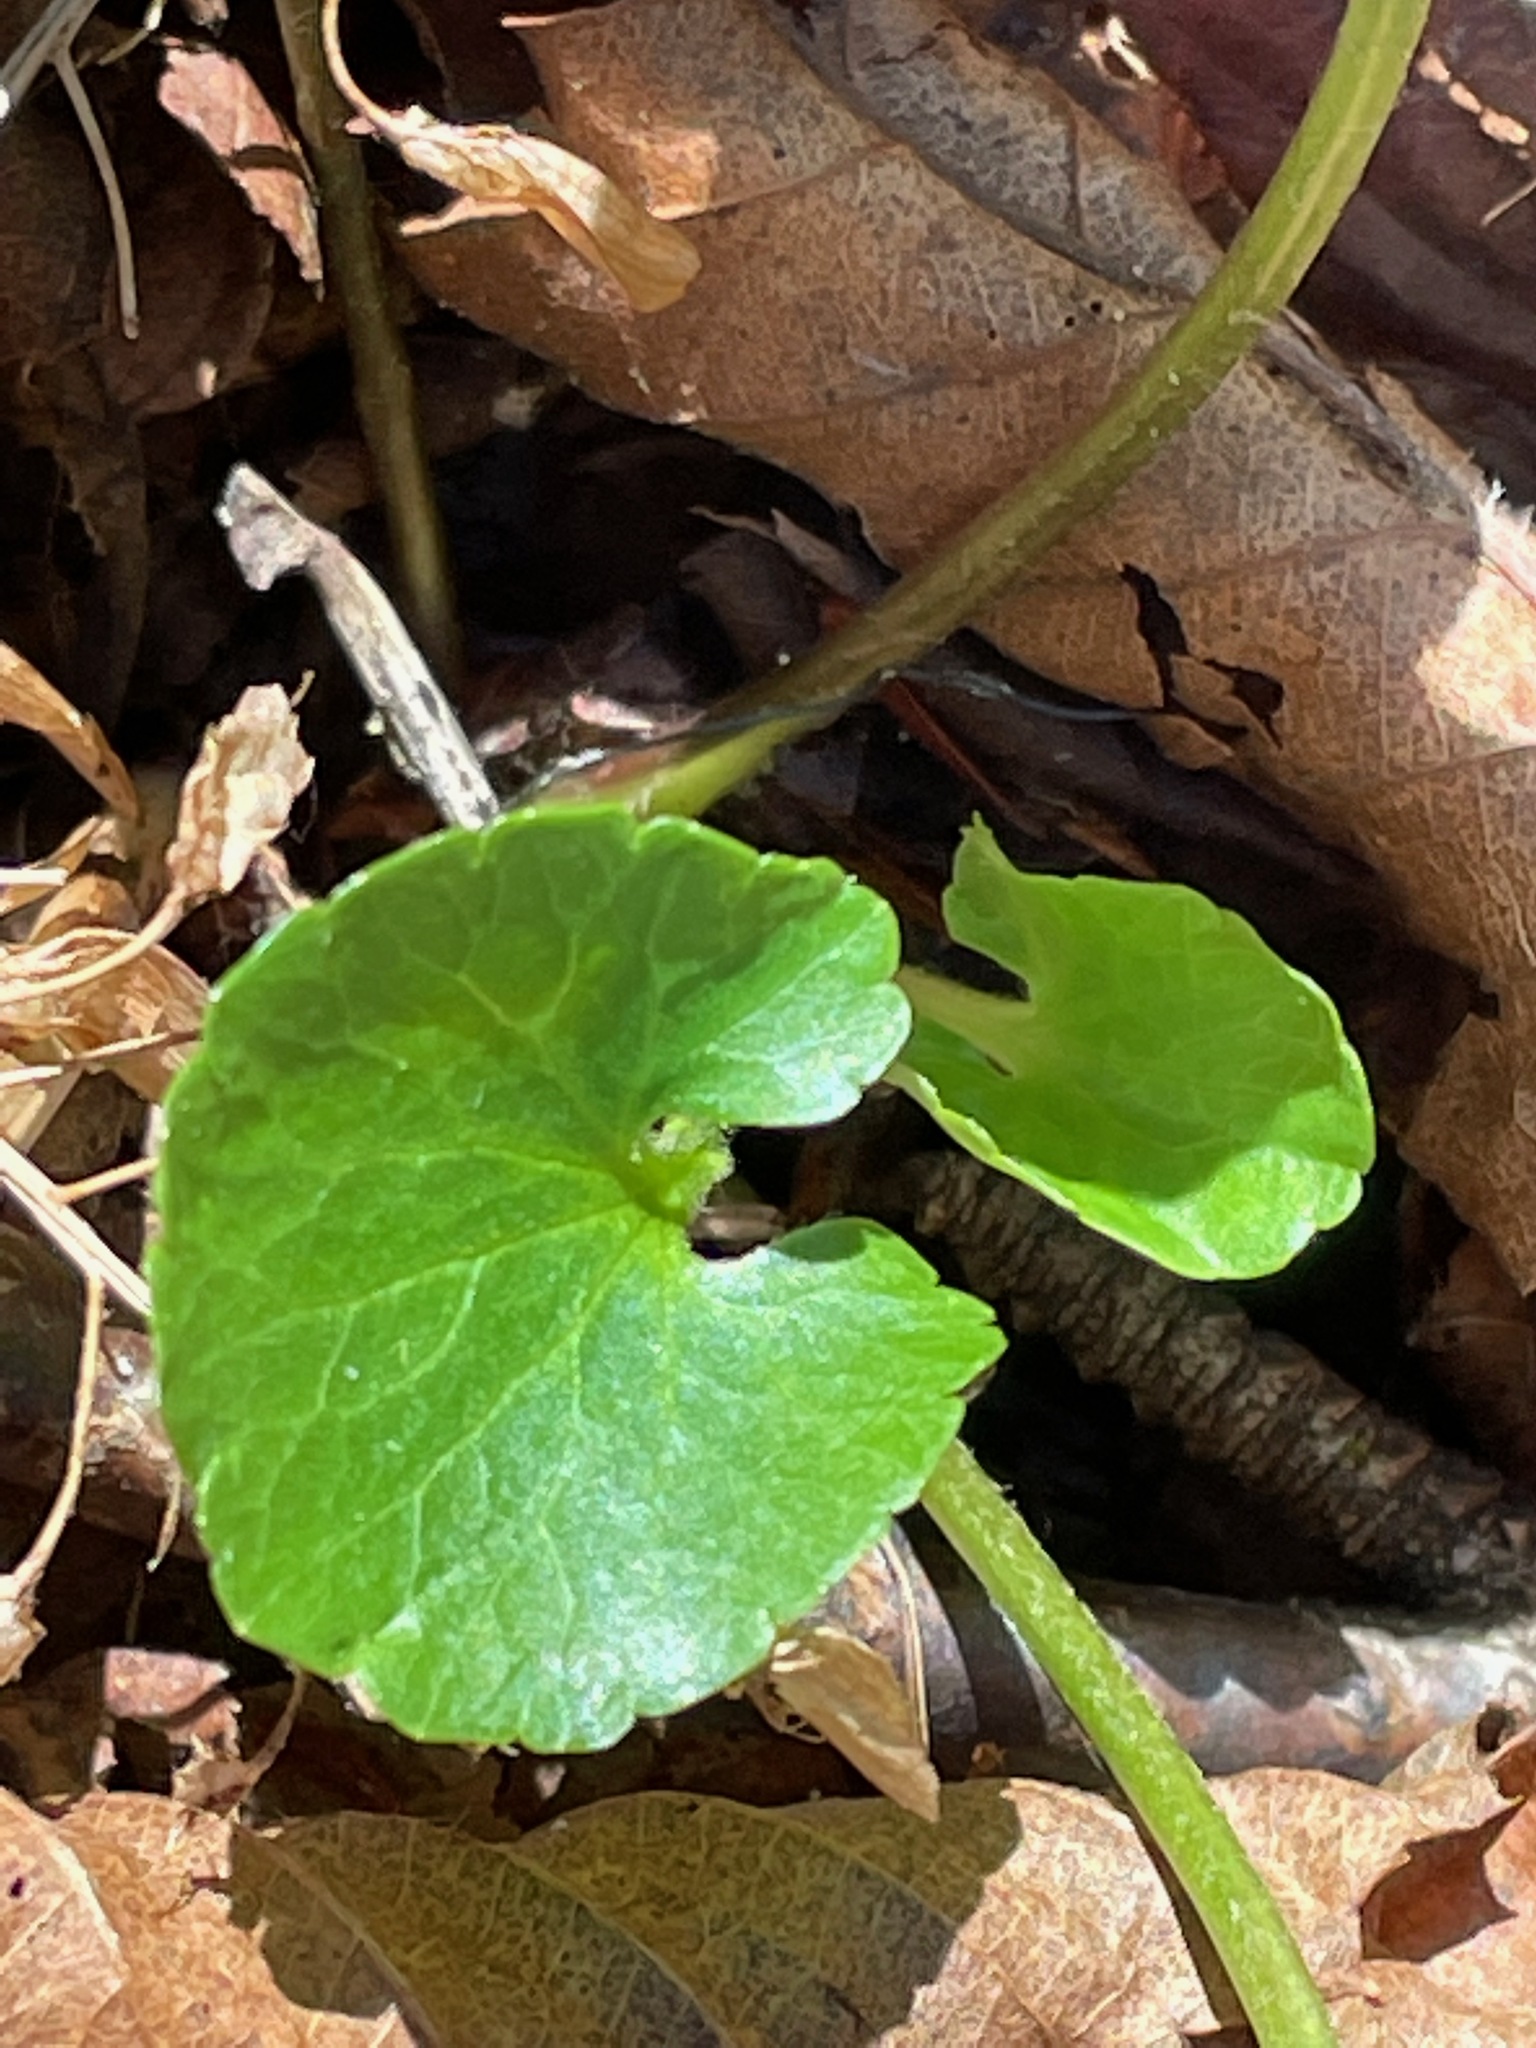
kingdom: Plantae
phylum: Tracheophyta
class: Magnoliopsida
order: Ranunculales
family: Ranunculaceae
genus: Ranunculus
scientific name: Ranunculus abortivus
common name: Early wood buttercup
